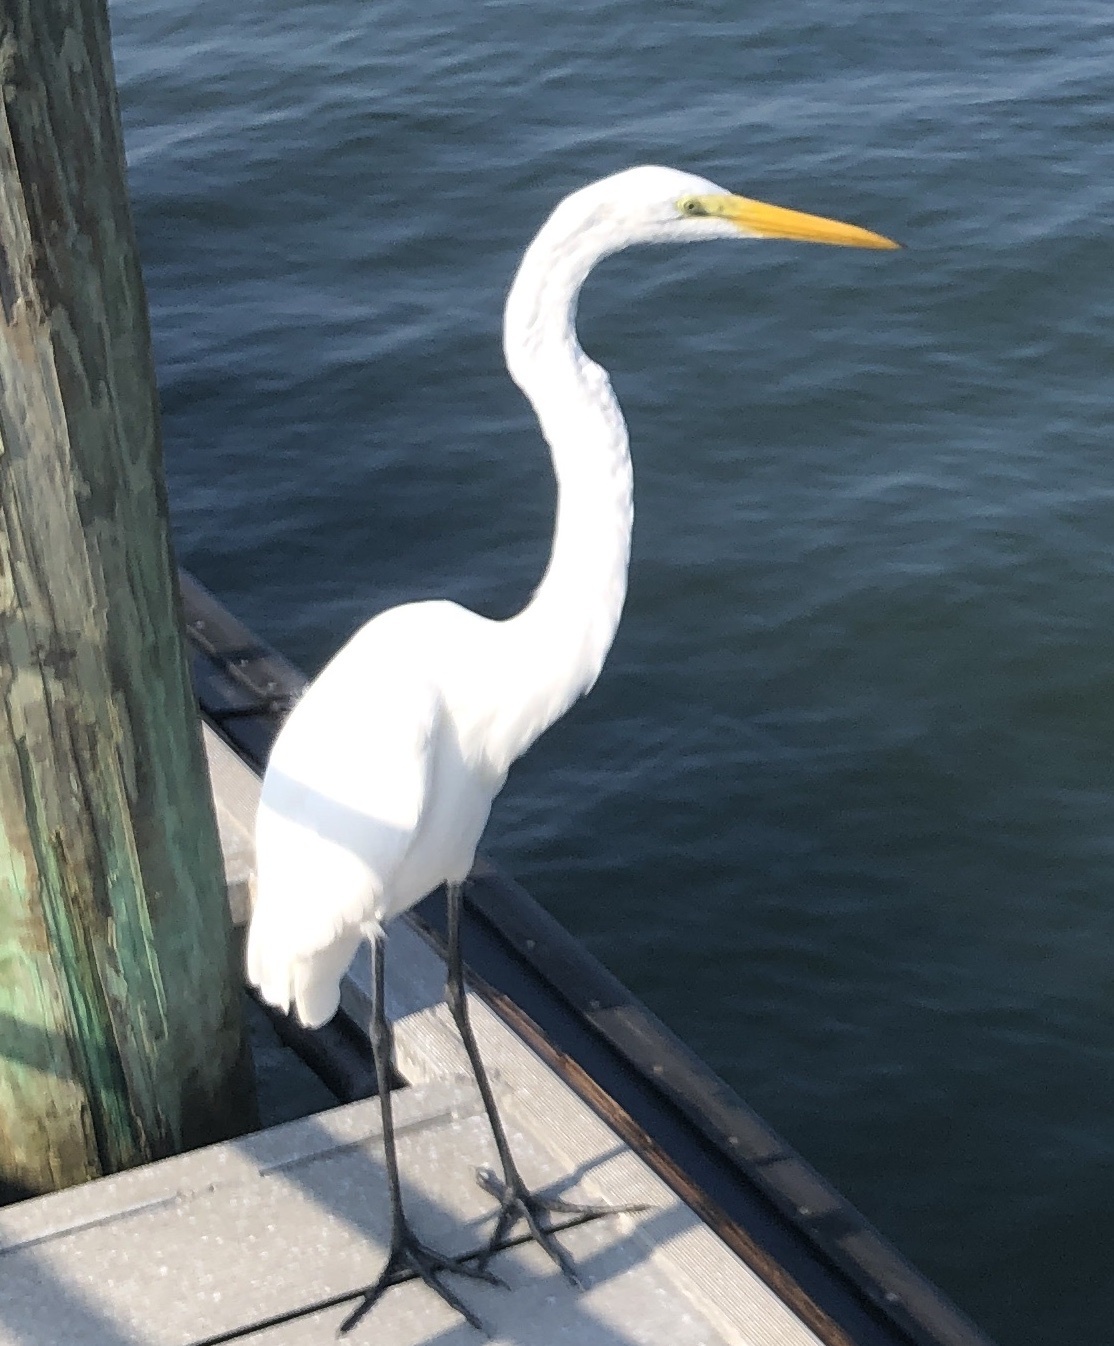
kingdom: Animalia
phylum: Chordata
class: Aves
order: Pelecaniformes
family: Ardeidae
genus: Ardea
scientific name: Ardea alba
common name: Great egret
